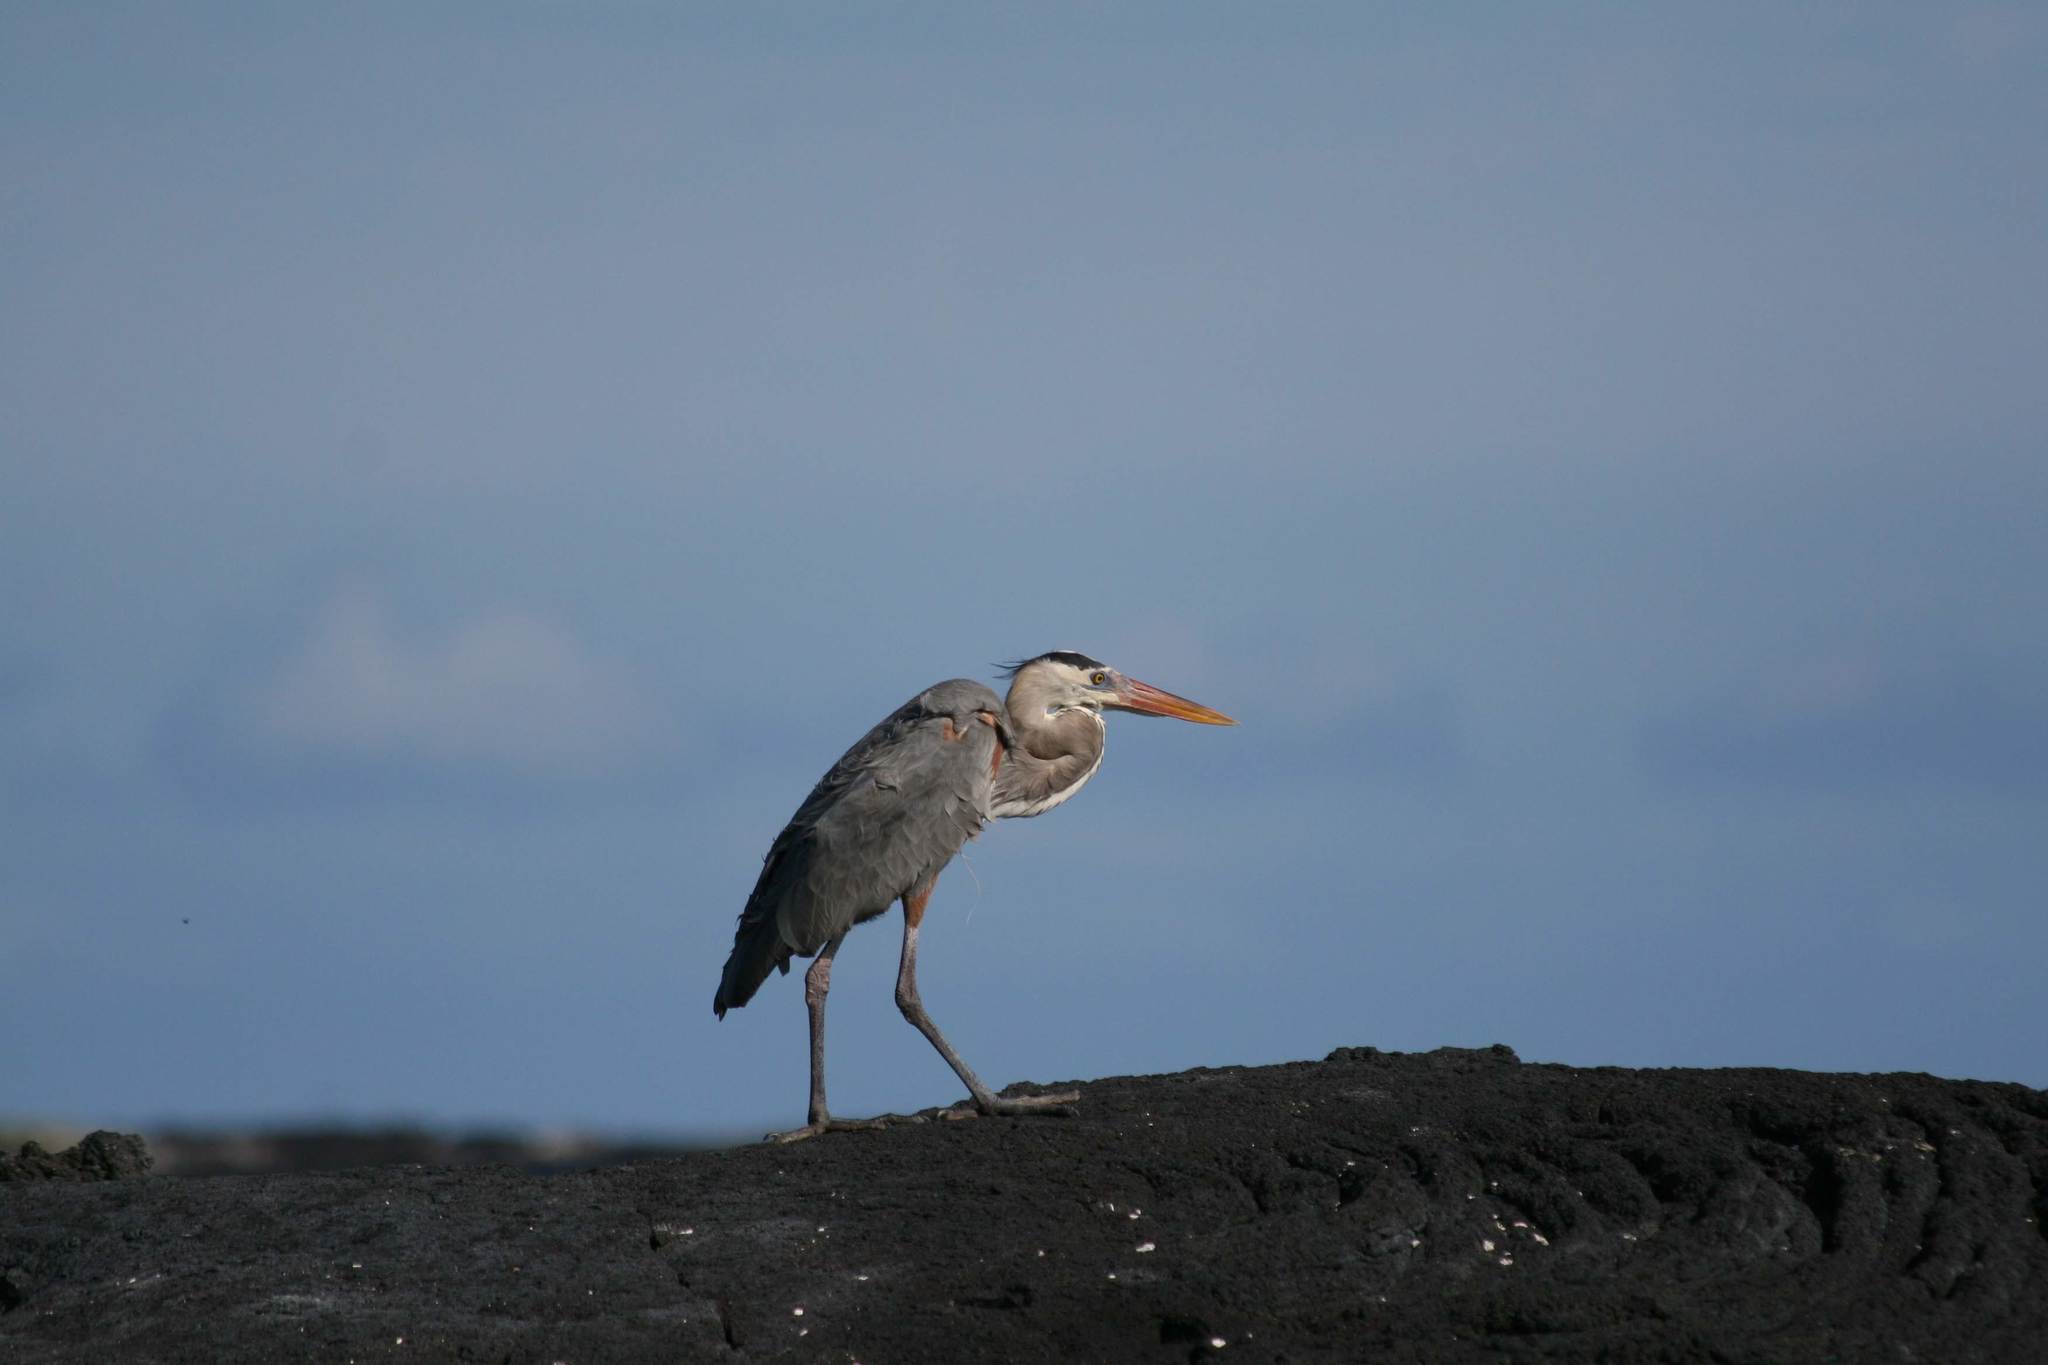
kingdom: Animalia
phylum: Chordata
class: Aves
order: Pelecaniformes
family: Ardeidae
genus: Ardea
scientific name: Ardea herodias
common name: Great blue heron
